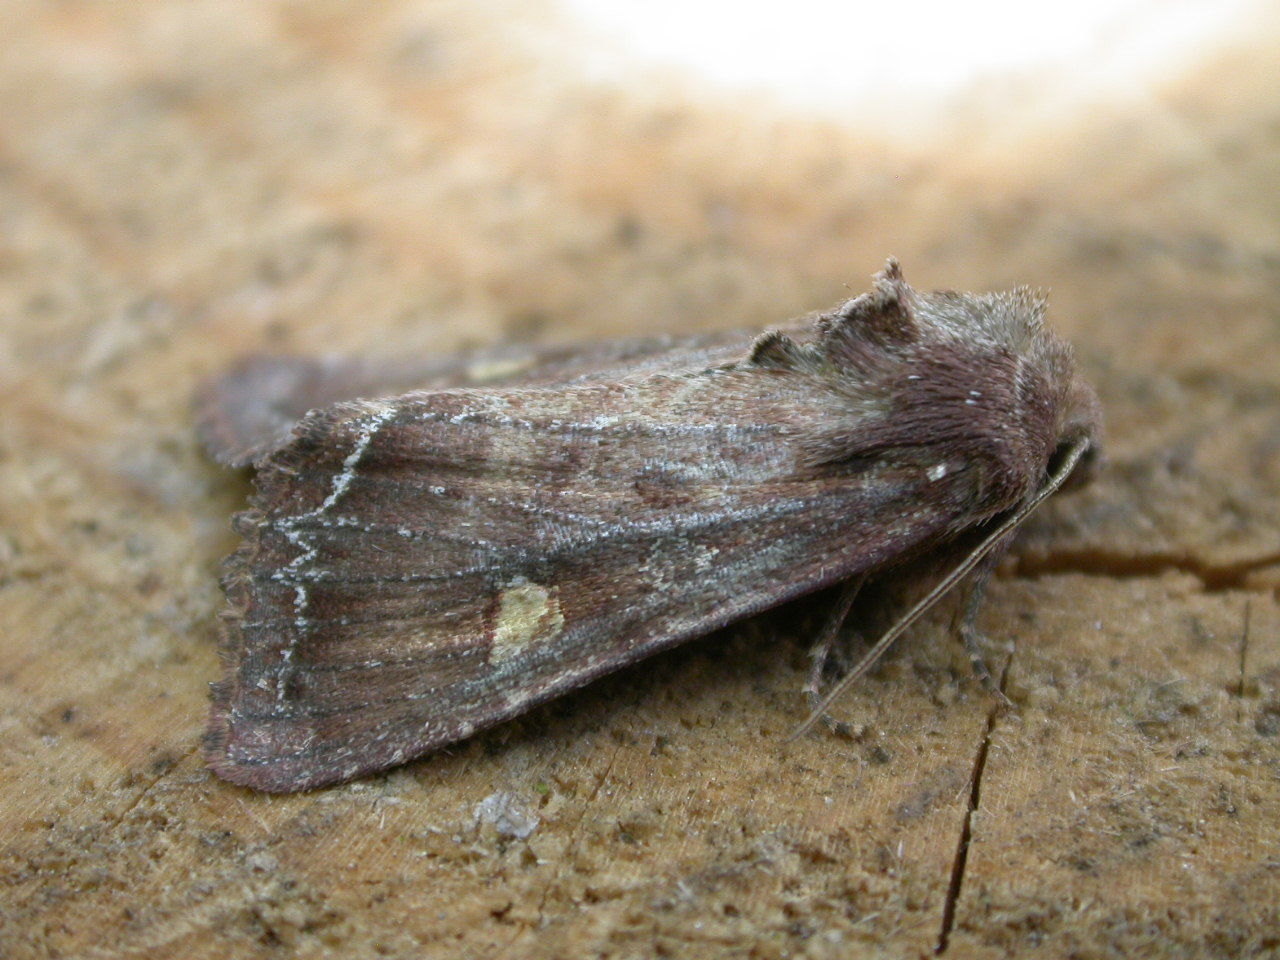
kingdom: Animalia
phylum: Arthropoda
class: Insecta
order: Lepidoptera
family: Noctuidae
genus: Lacanobia
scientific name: Lacanobia oleracea
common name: Bright-line brown-eye
